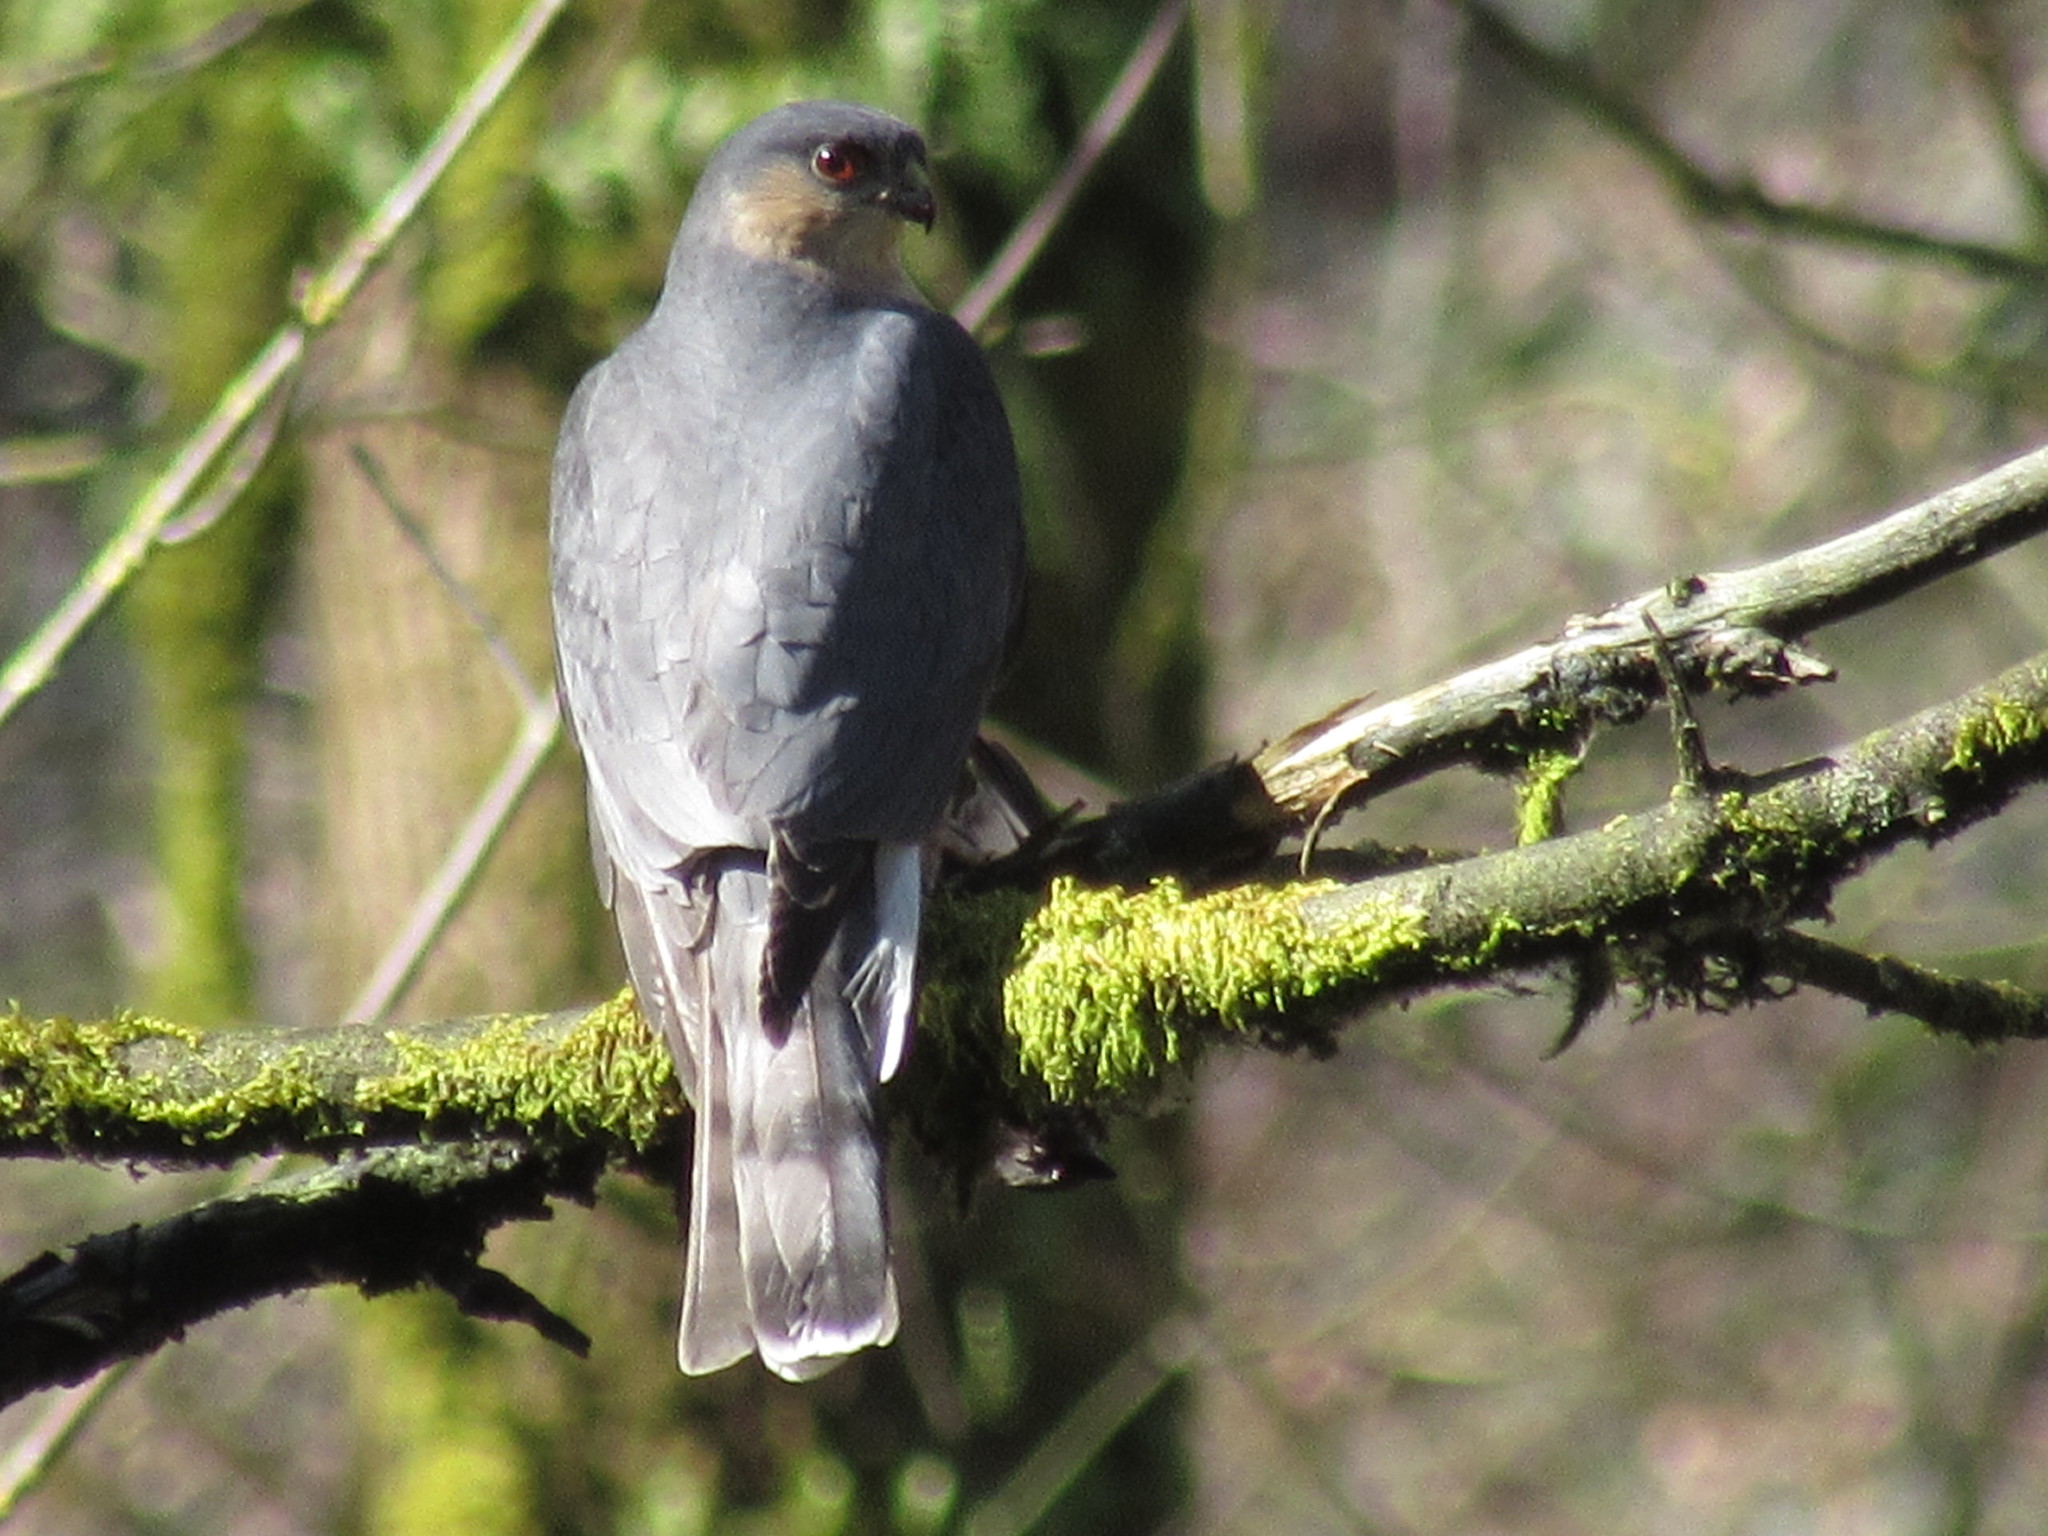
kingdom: Animalia
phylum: Chordata
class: Aves
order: Accipitriformes
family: Accipitridae
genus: Accipiter
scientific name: Accipiter striatus
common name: Sharp-shinned hawk
